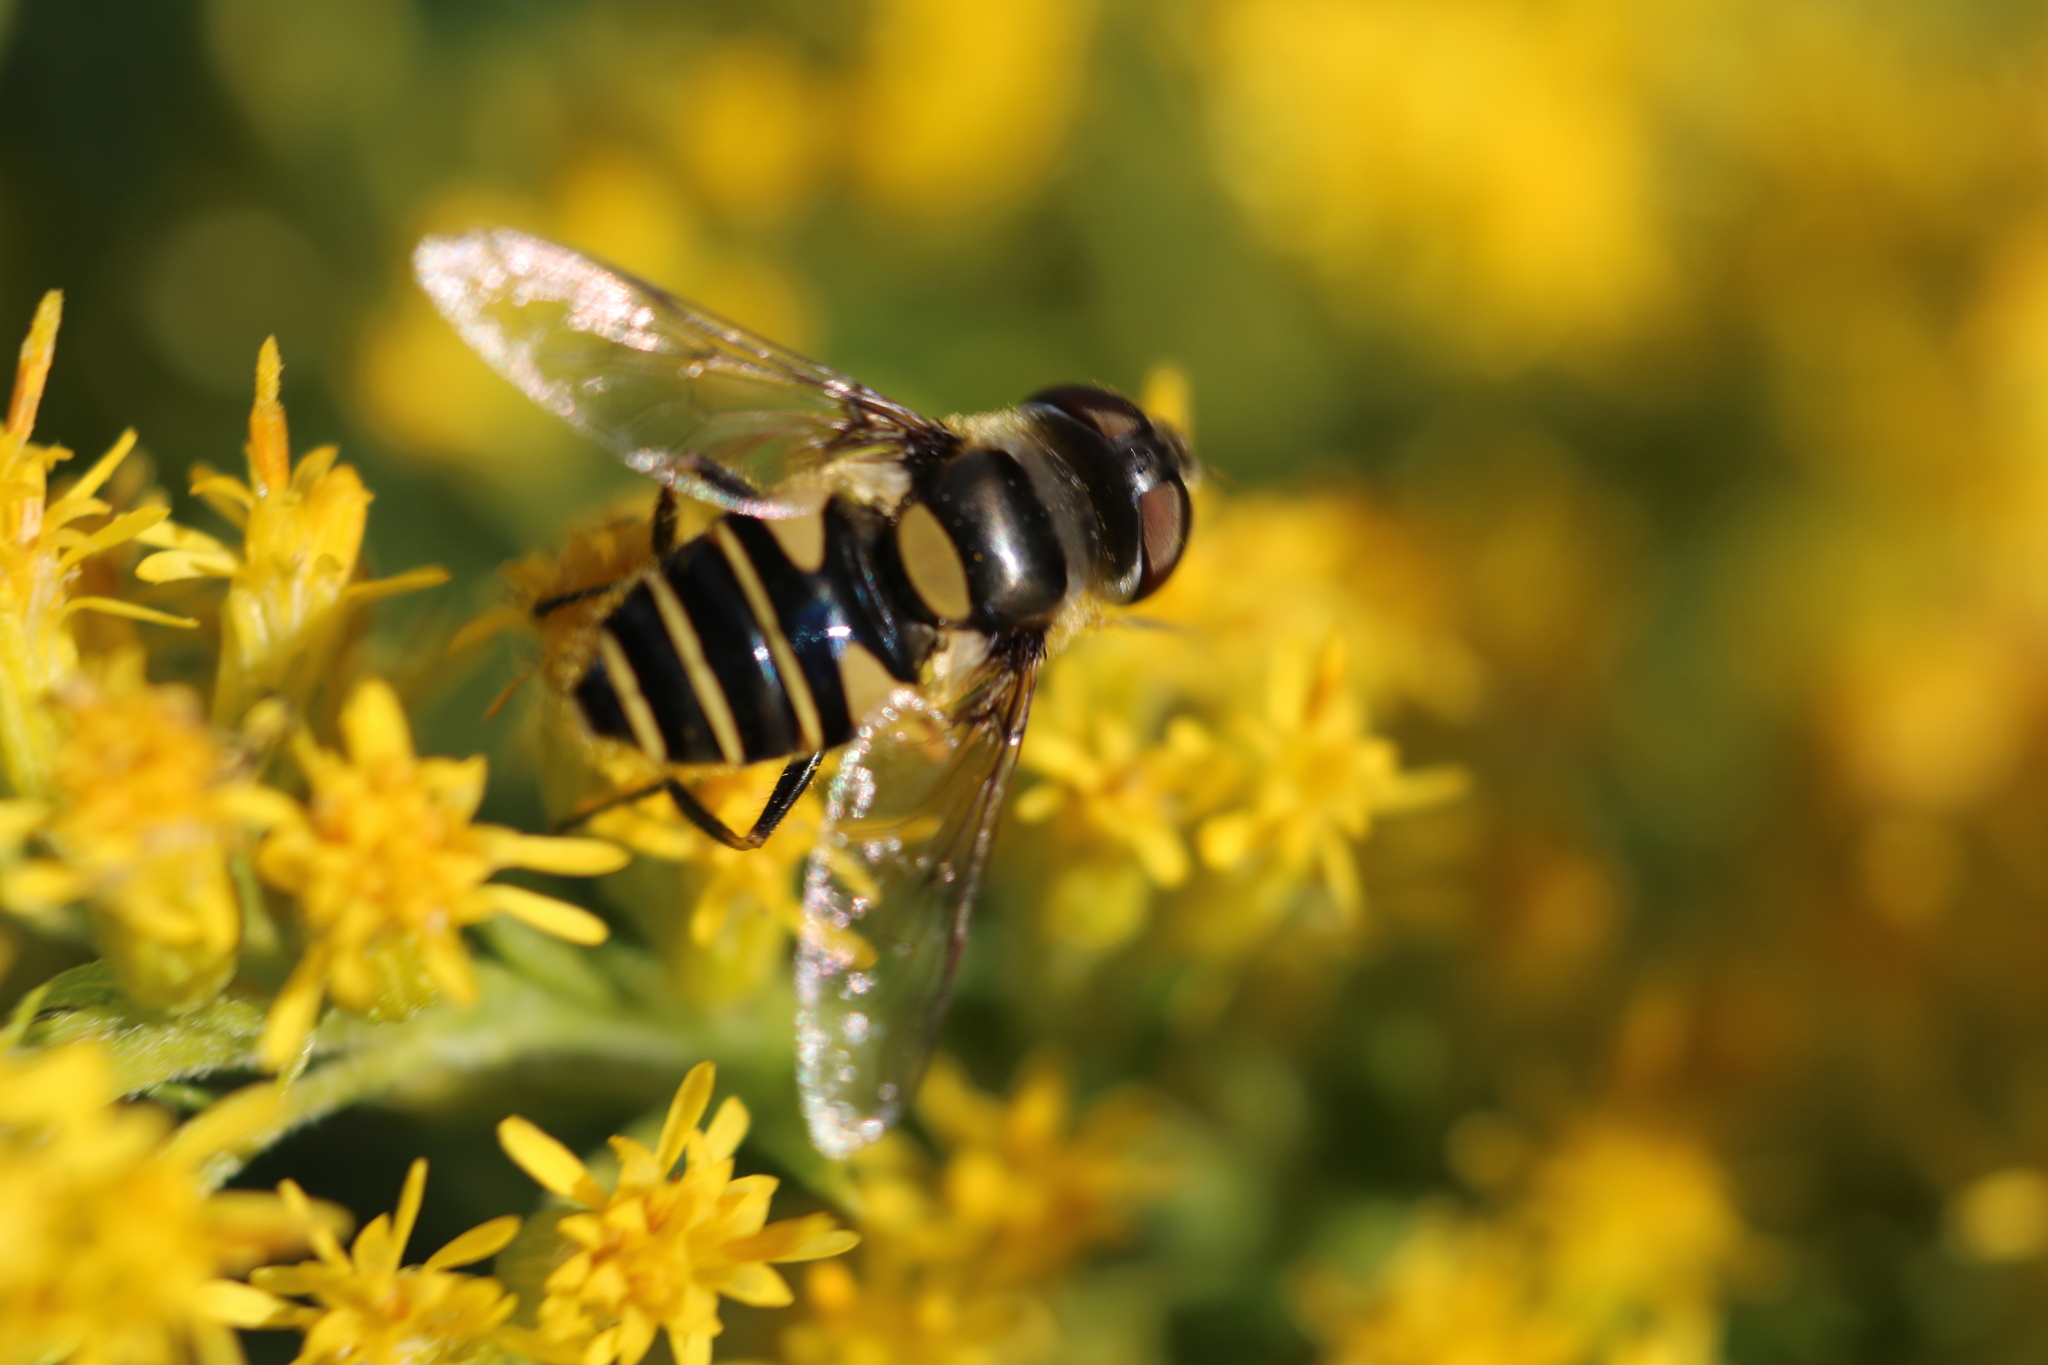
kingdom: Animalia
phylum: Arthropoda
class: Insecta
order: Diptera
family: Syrphidae
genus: Eristalis
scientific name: Eristalis transversa
